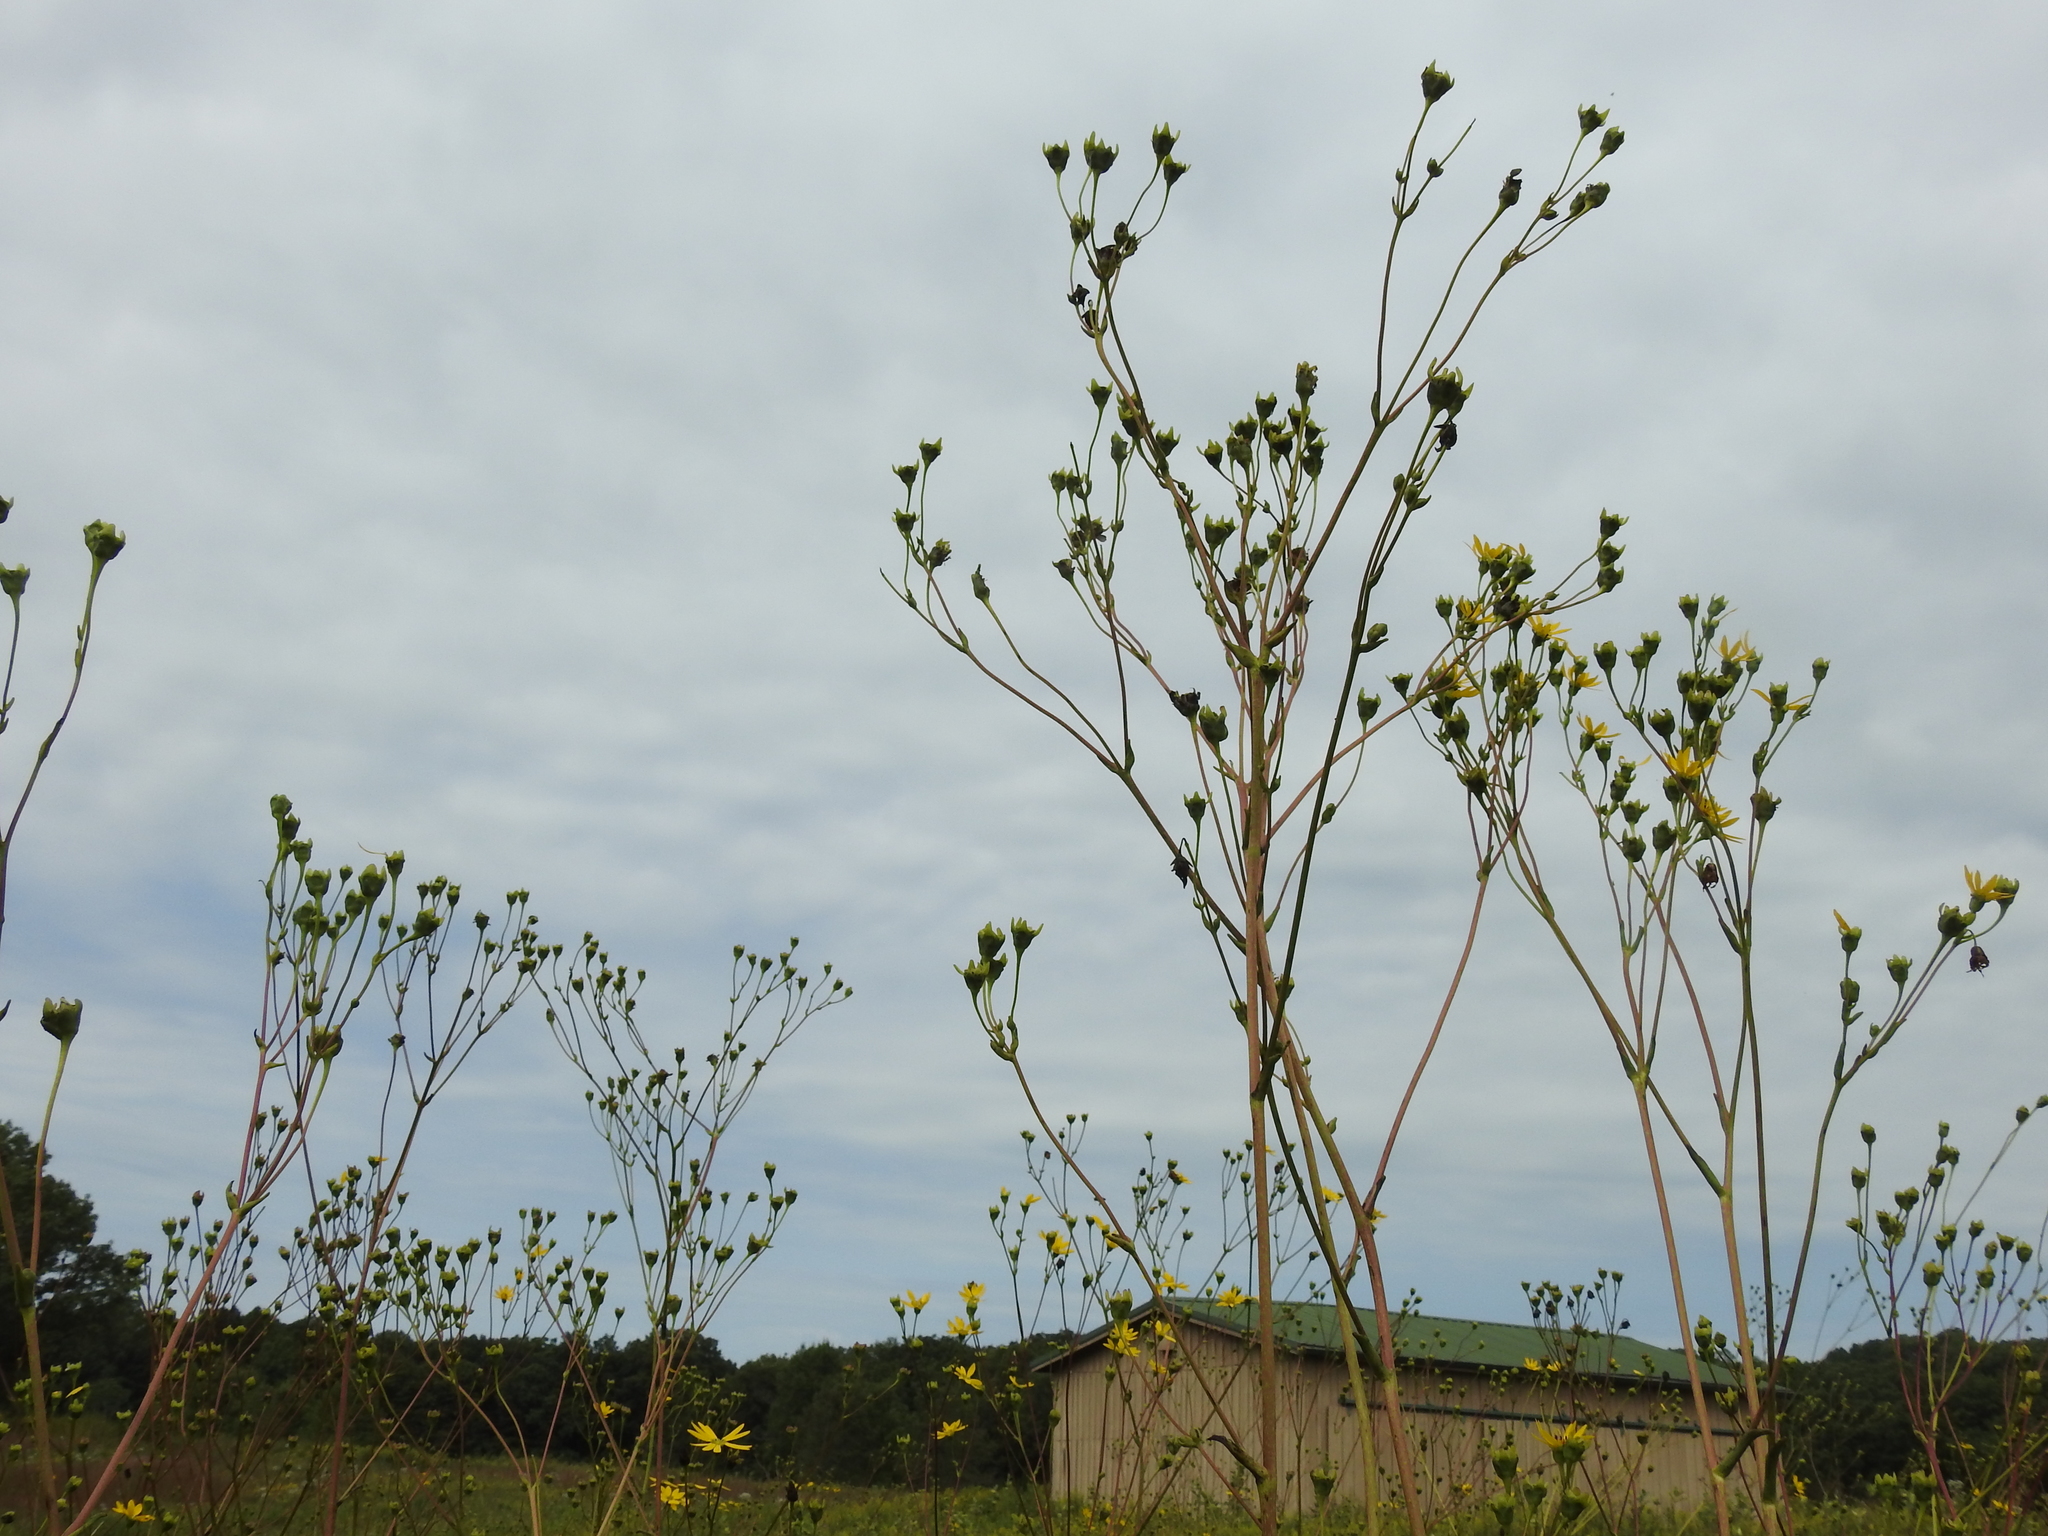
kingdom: Plantae
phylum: Tracheophyta
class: Magnoliopsida
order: Asterales
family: Asteraceae
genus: Silphium
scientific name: Silphium terebinthinaceum
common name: Basal-leaf rosinweed
